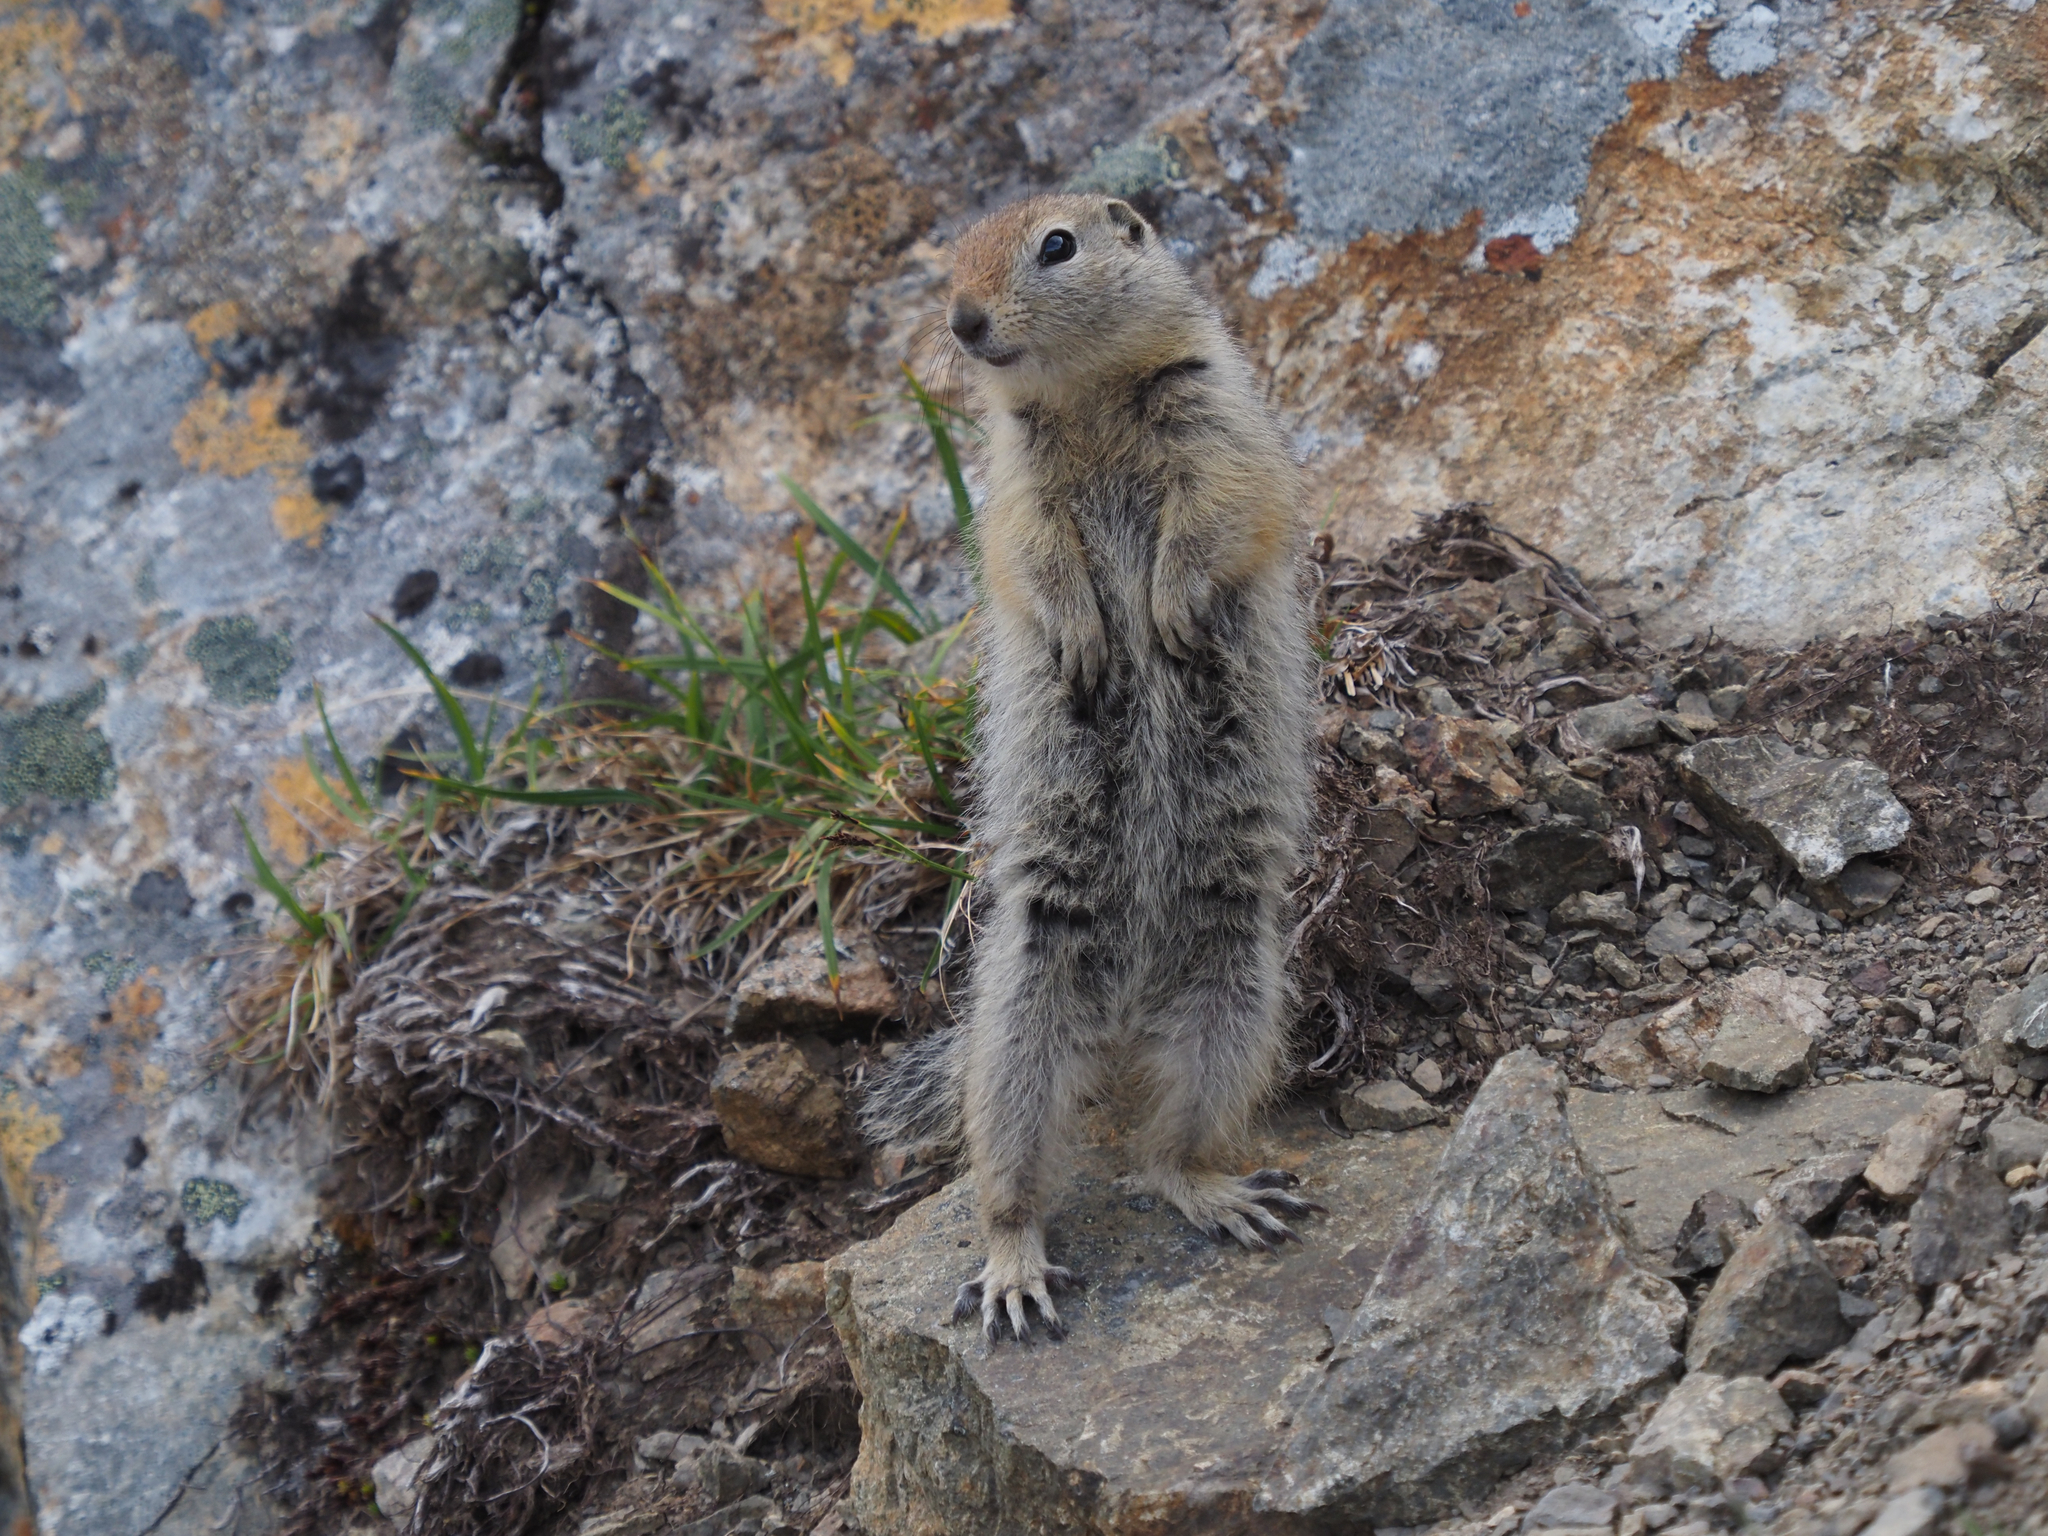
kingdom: Animalia
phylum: Chordata
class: Mammalia
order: Rodentia
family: Sciuridae
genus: Urocitellus
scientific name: Urocitellus parryii
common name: Arctic ground squirrel
